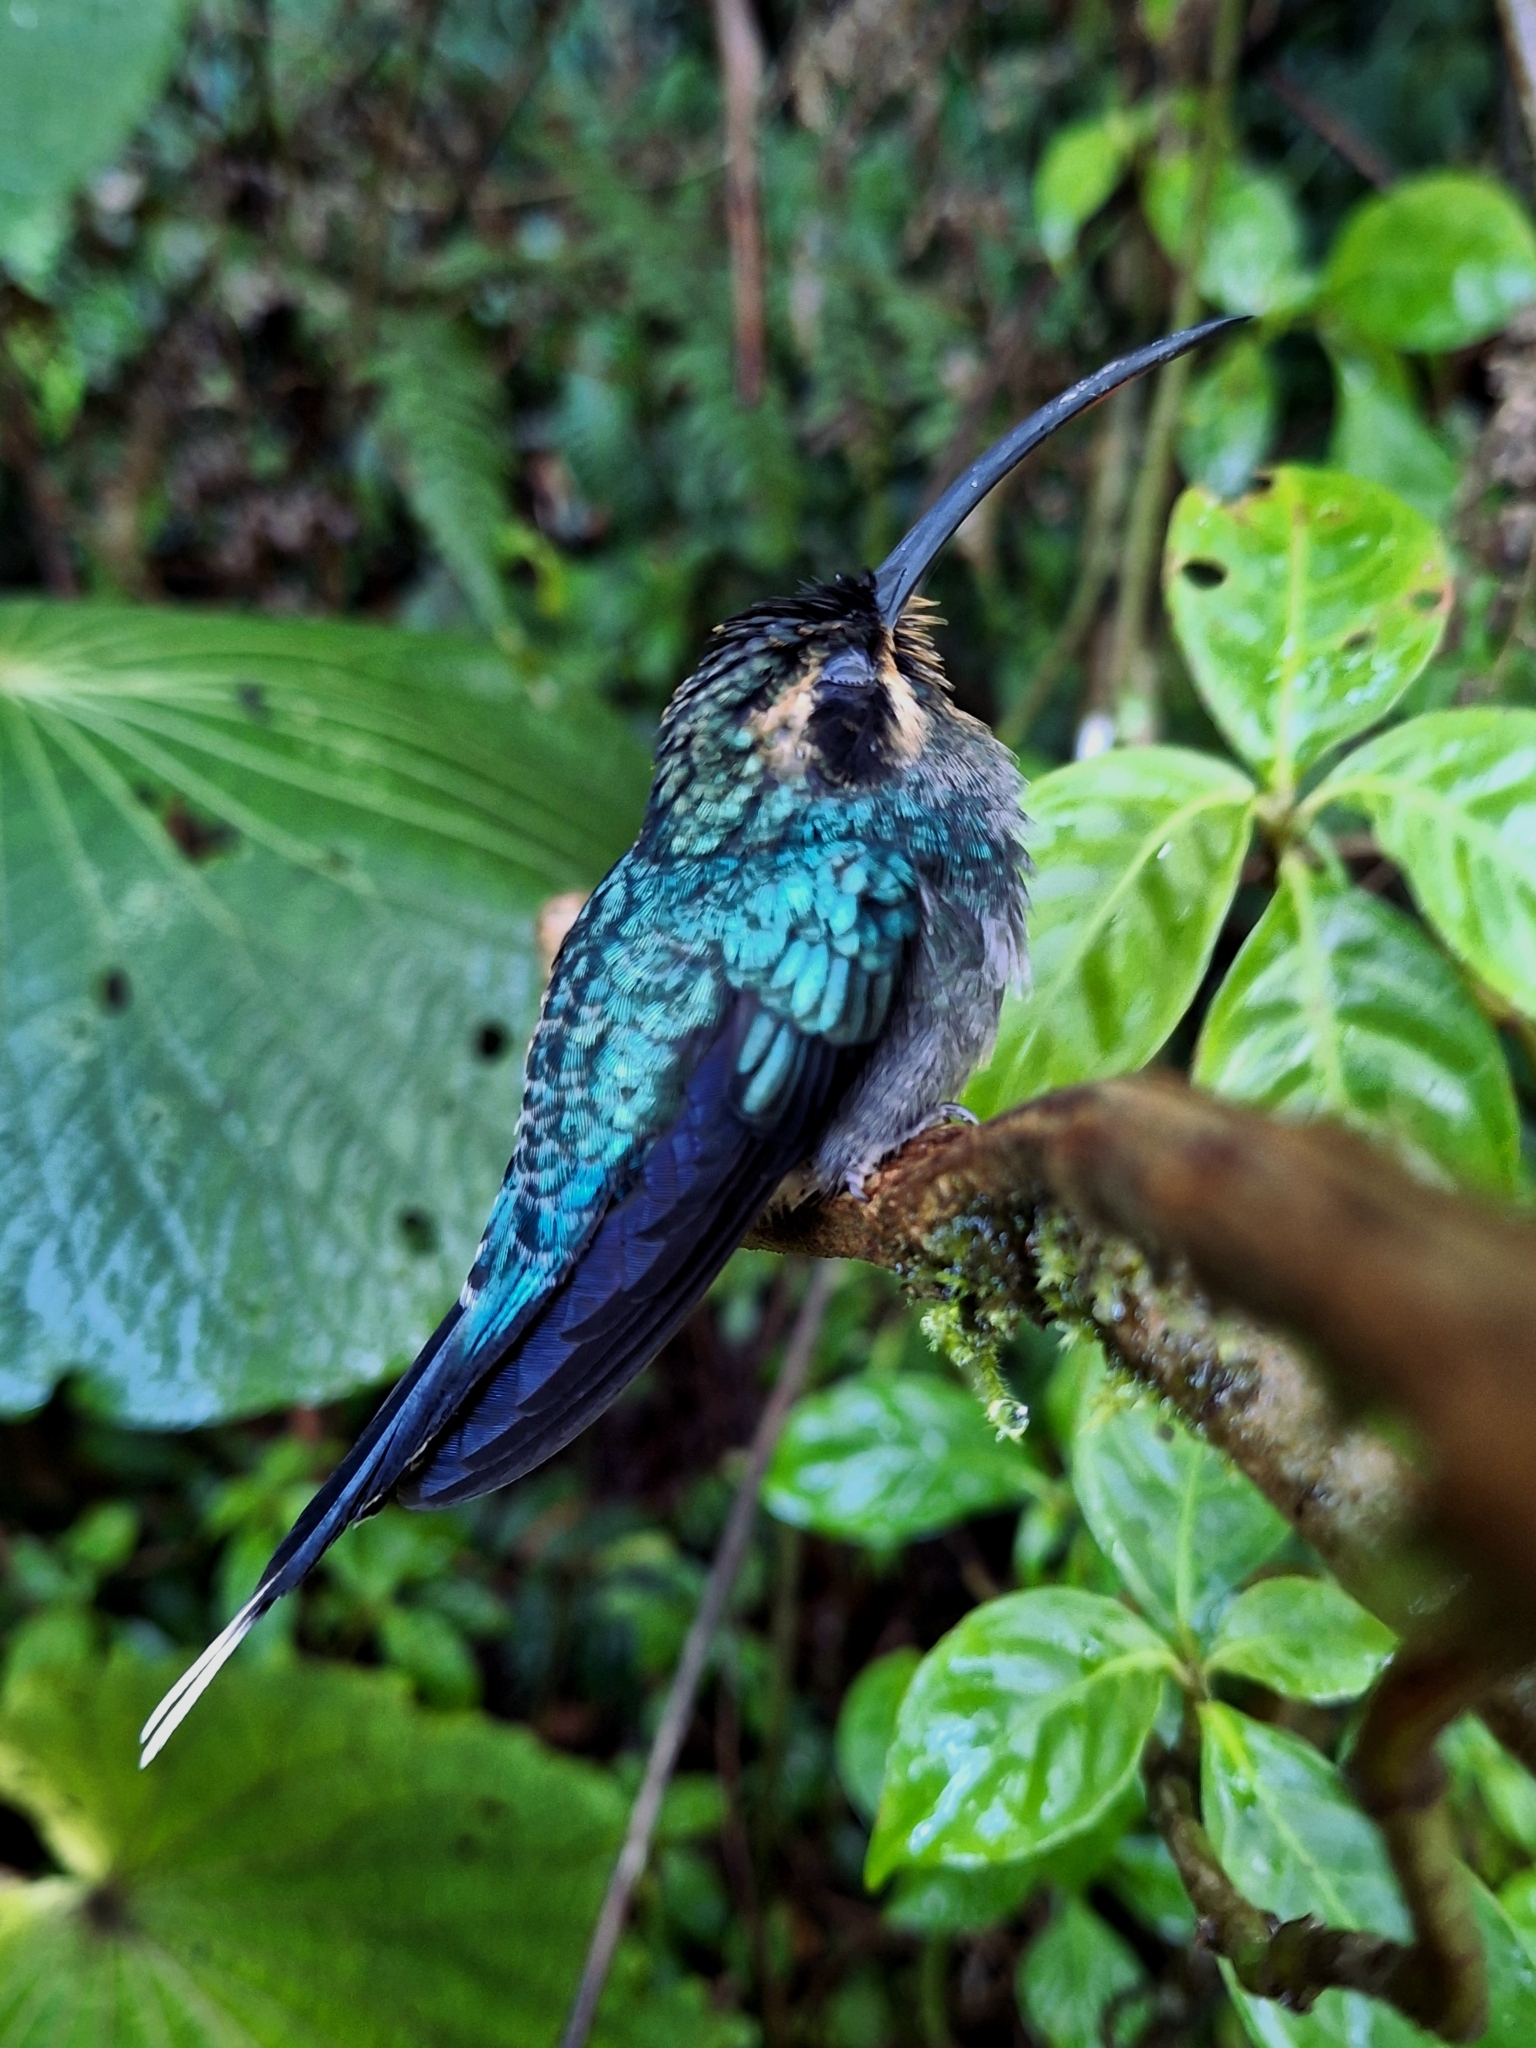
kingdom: Animalia
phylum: Chordata
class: Aves
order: Apodiformes
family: Trochilidae
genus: Phaethornis
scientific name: Phaethornis guy
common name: Green hermit
